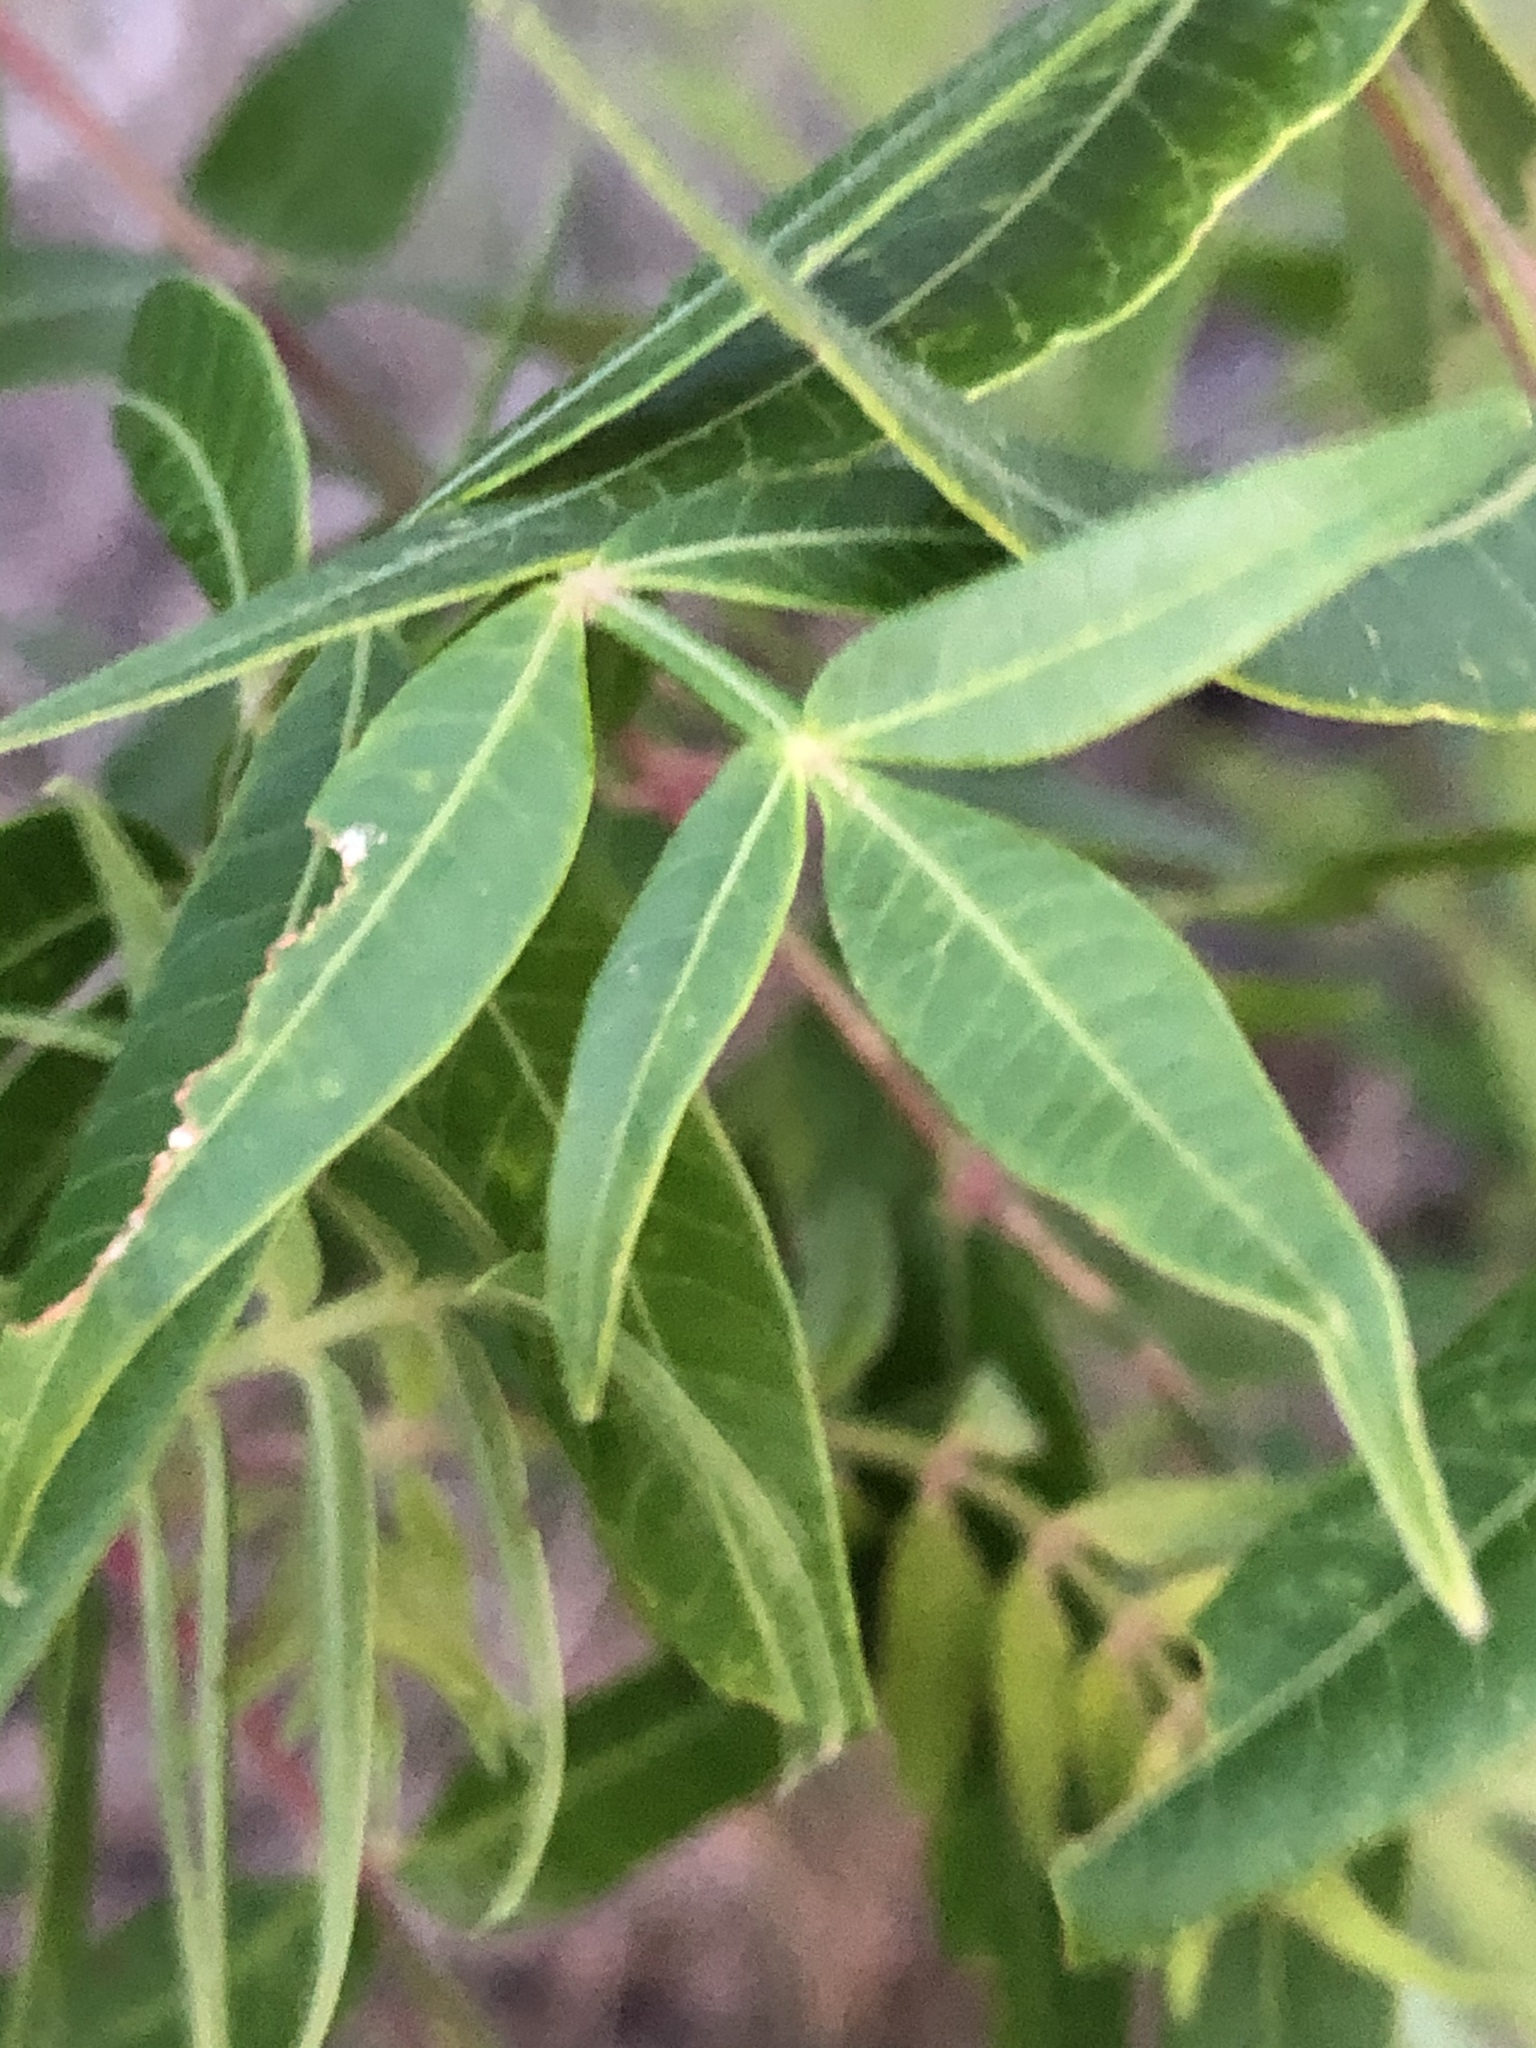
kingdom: Plantae
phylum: Tracheophyta
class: Magnoliopsida
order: Sapindales
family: Anacardiaceae
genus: Rhus
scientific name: Rhus lanceolata
